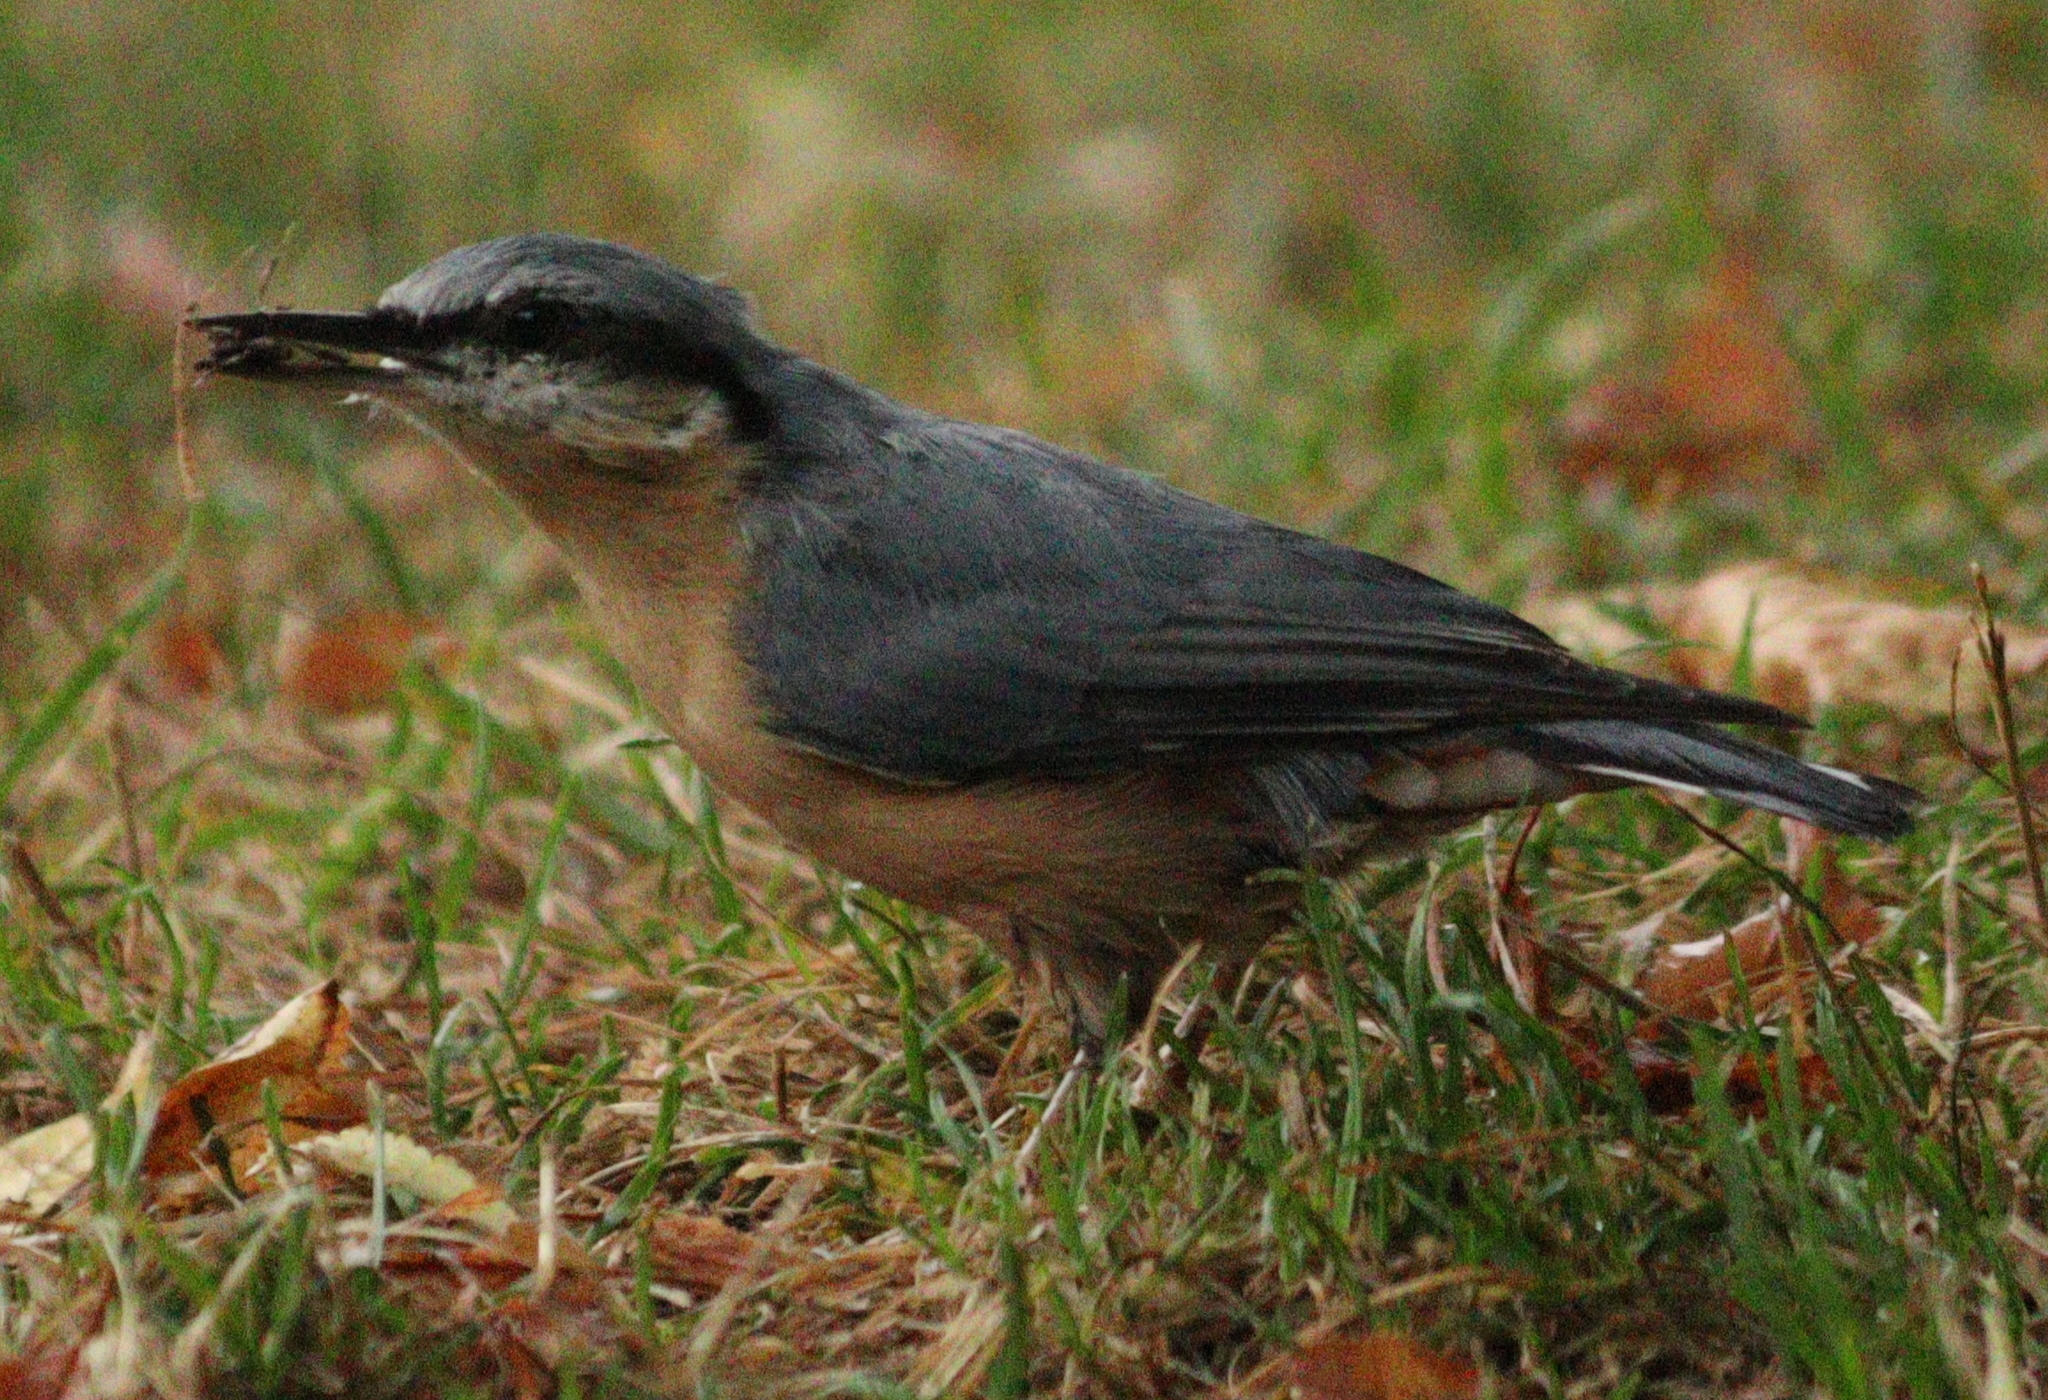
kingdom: Animalia
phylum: Chordata
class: Aves
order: Passeriformes
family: Sittidae
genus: Sitta
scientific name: Sitta europaea
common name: Eurasian nuthatch
